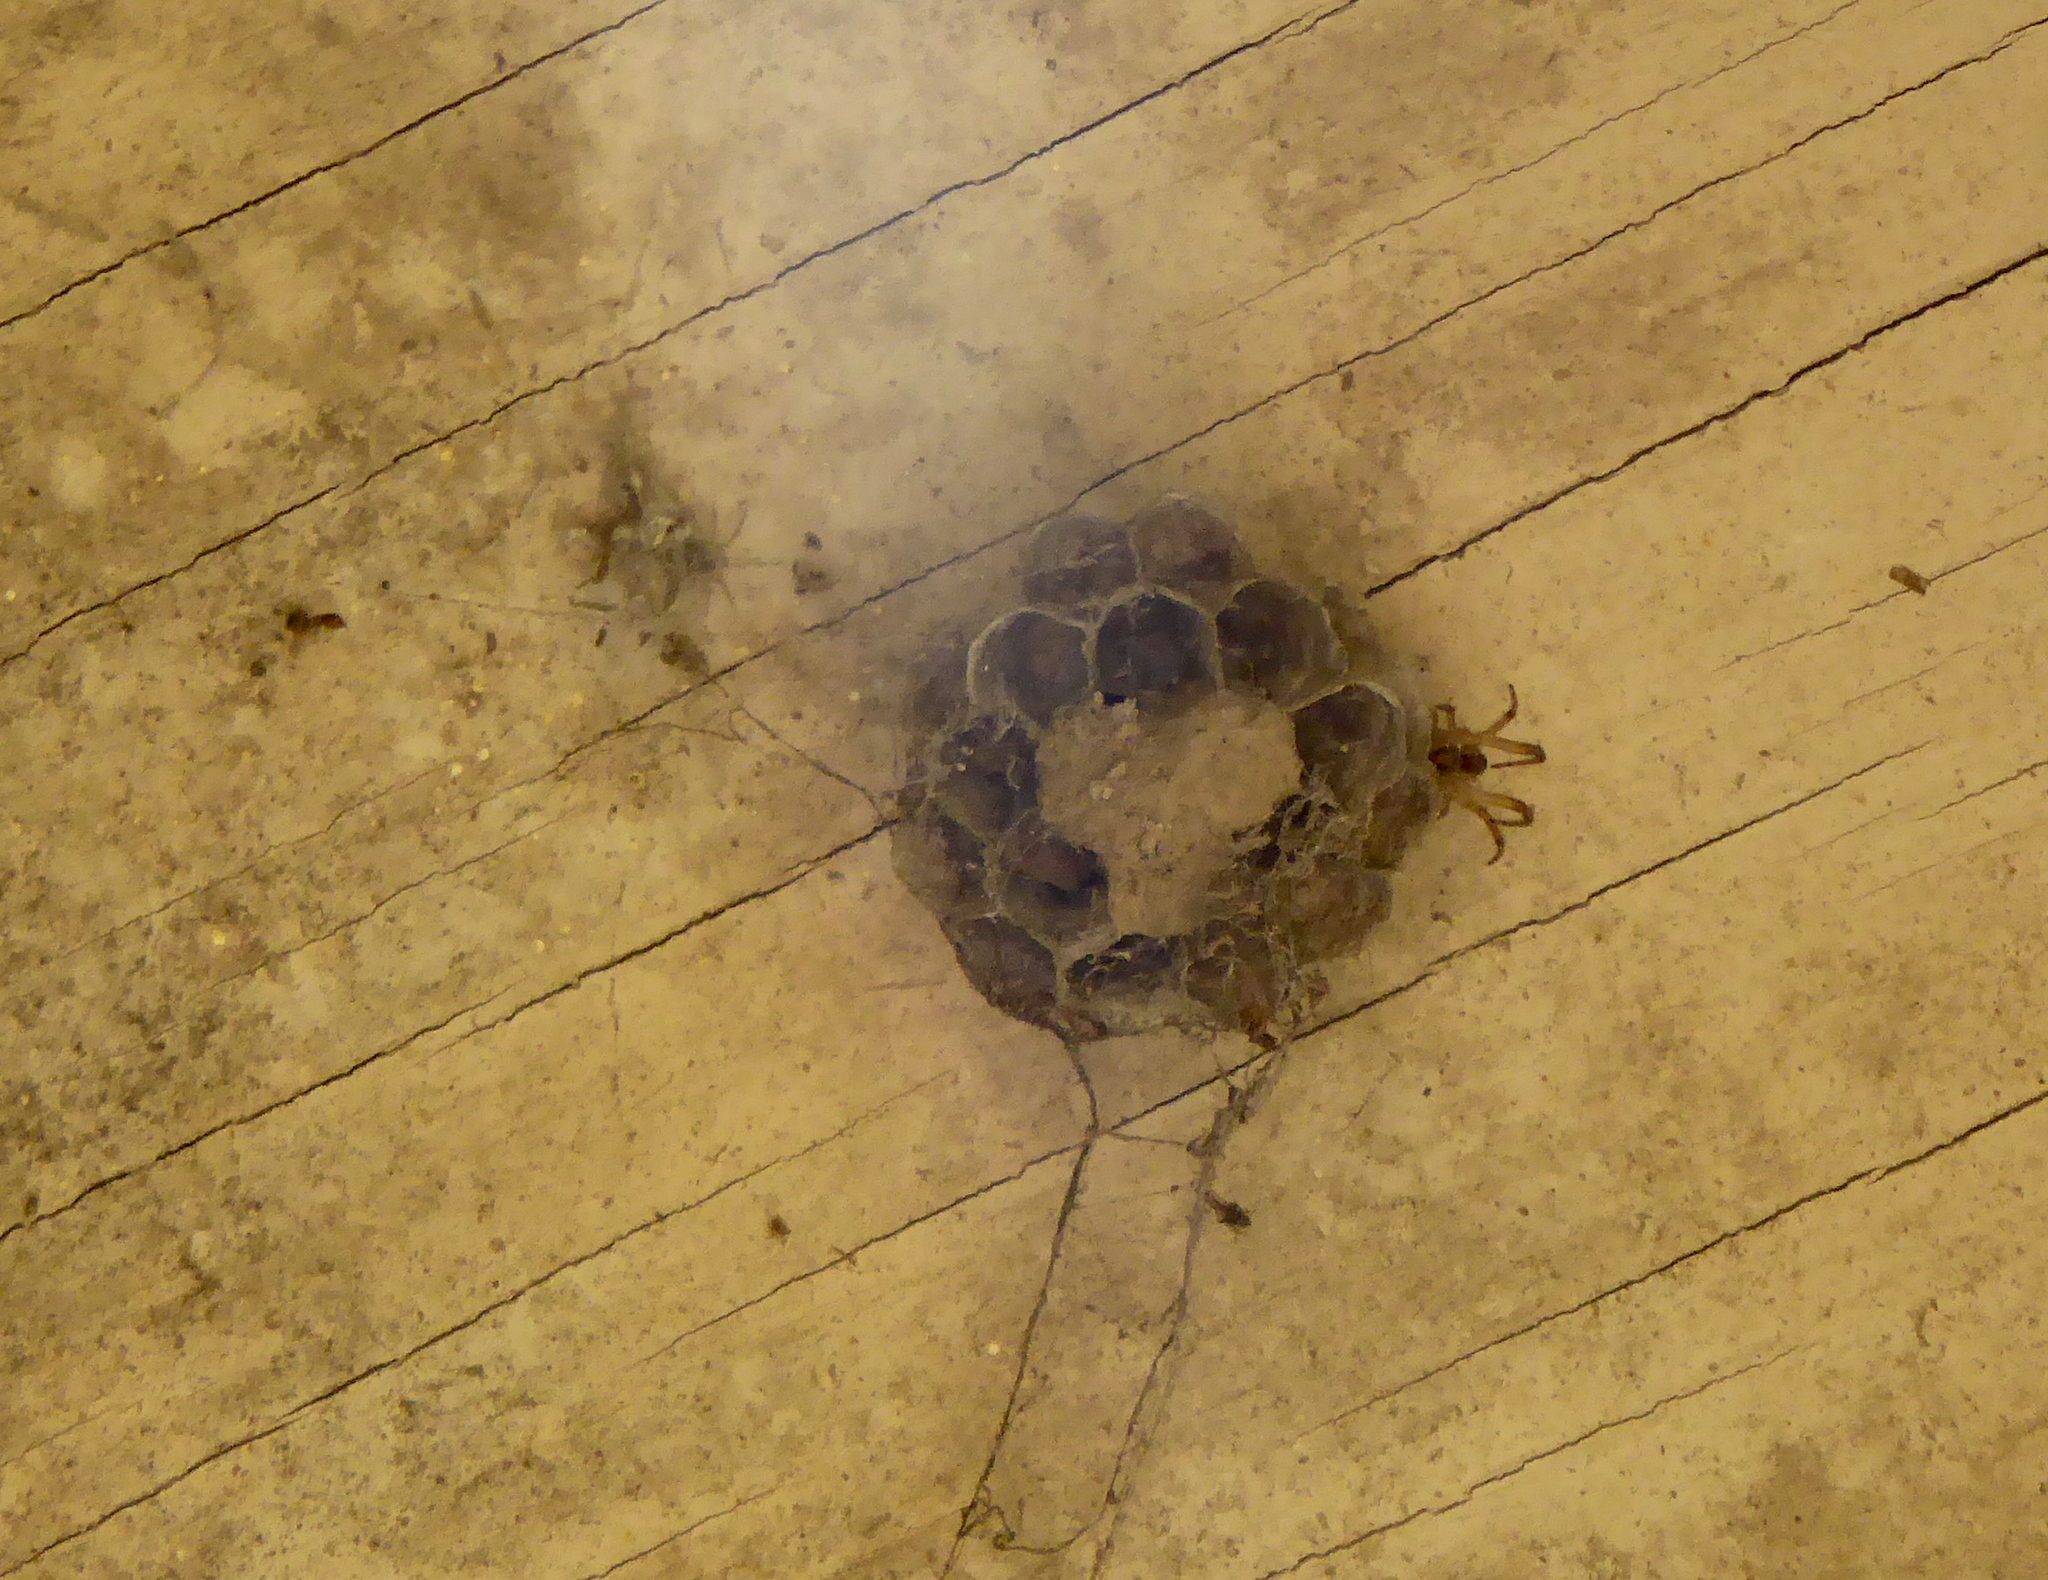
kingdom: Animalia
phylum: Arthropoda
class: Insecta
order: Hymenoptera
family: Eumenidae
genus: Polistes
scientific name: Polistes
